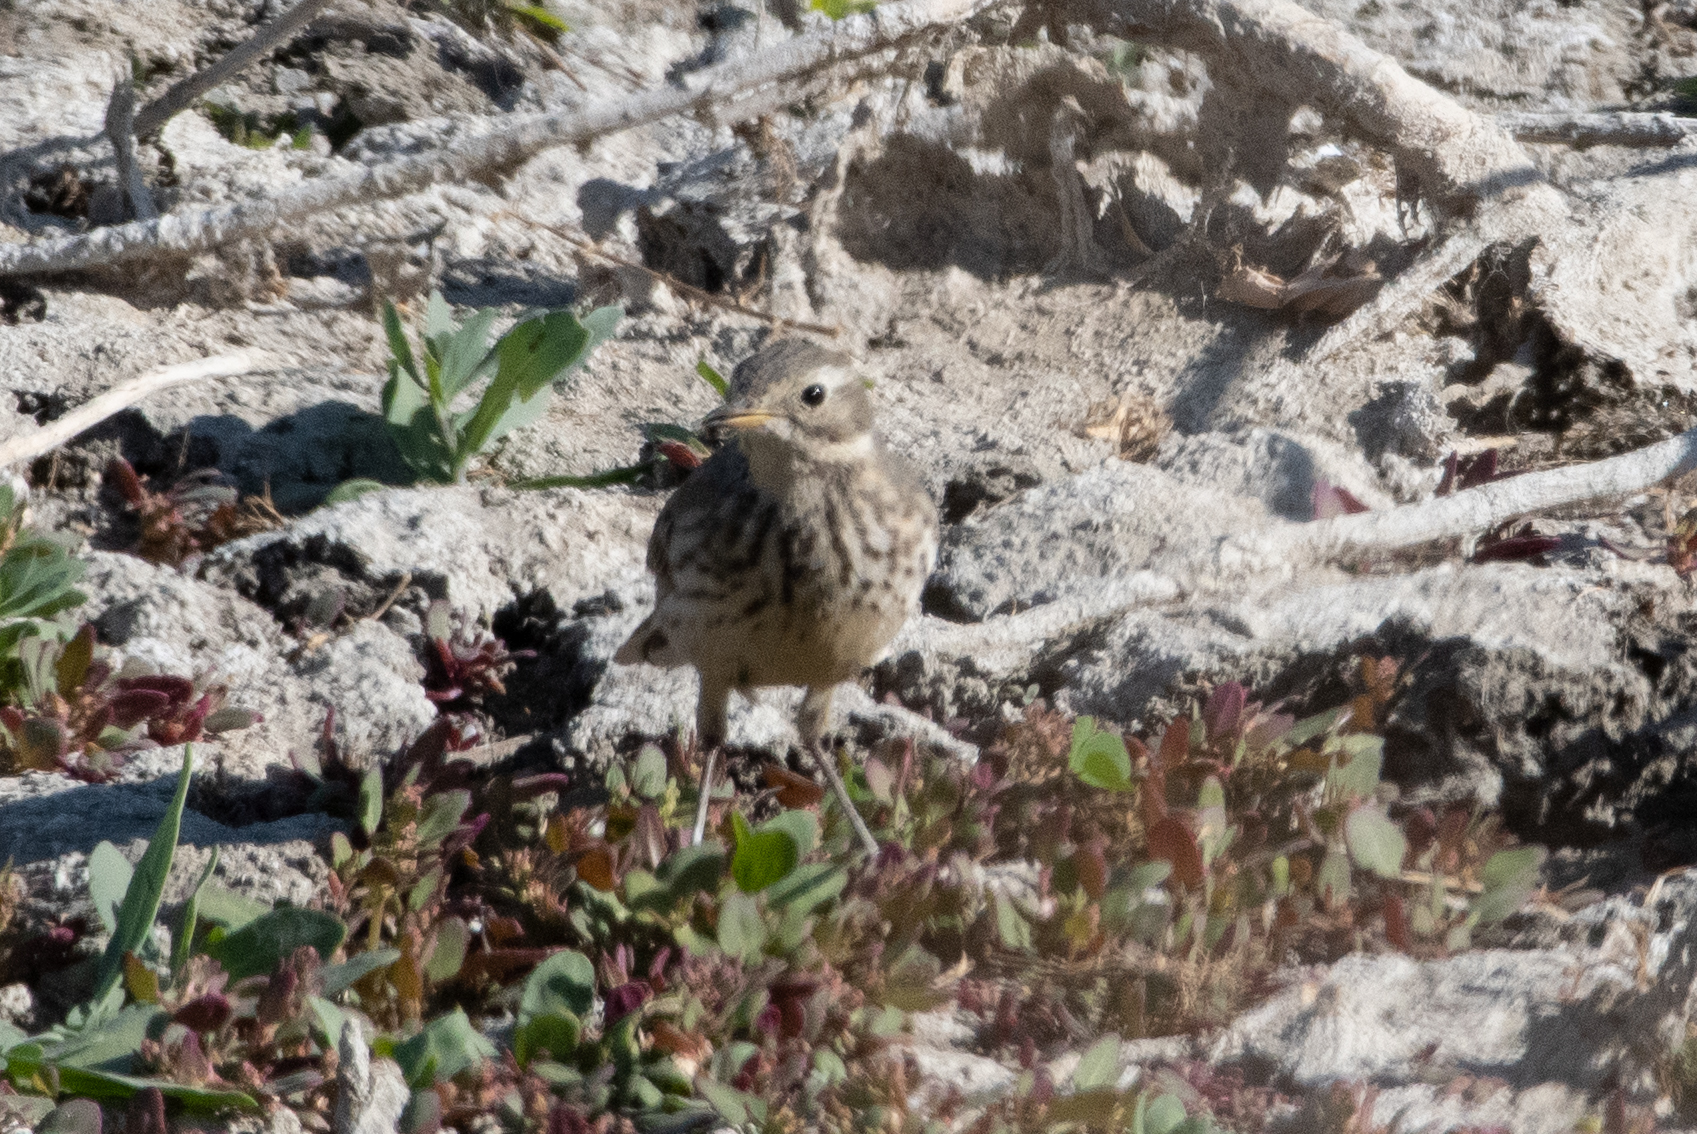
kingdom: Animalia
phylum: Chordata
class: Aves
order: Passeriformes
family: Motacillidae
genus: Anthus
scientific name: Anthus rubescens
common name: Buff-bellied pipit
